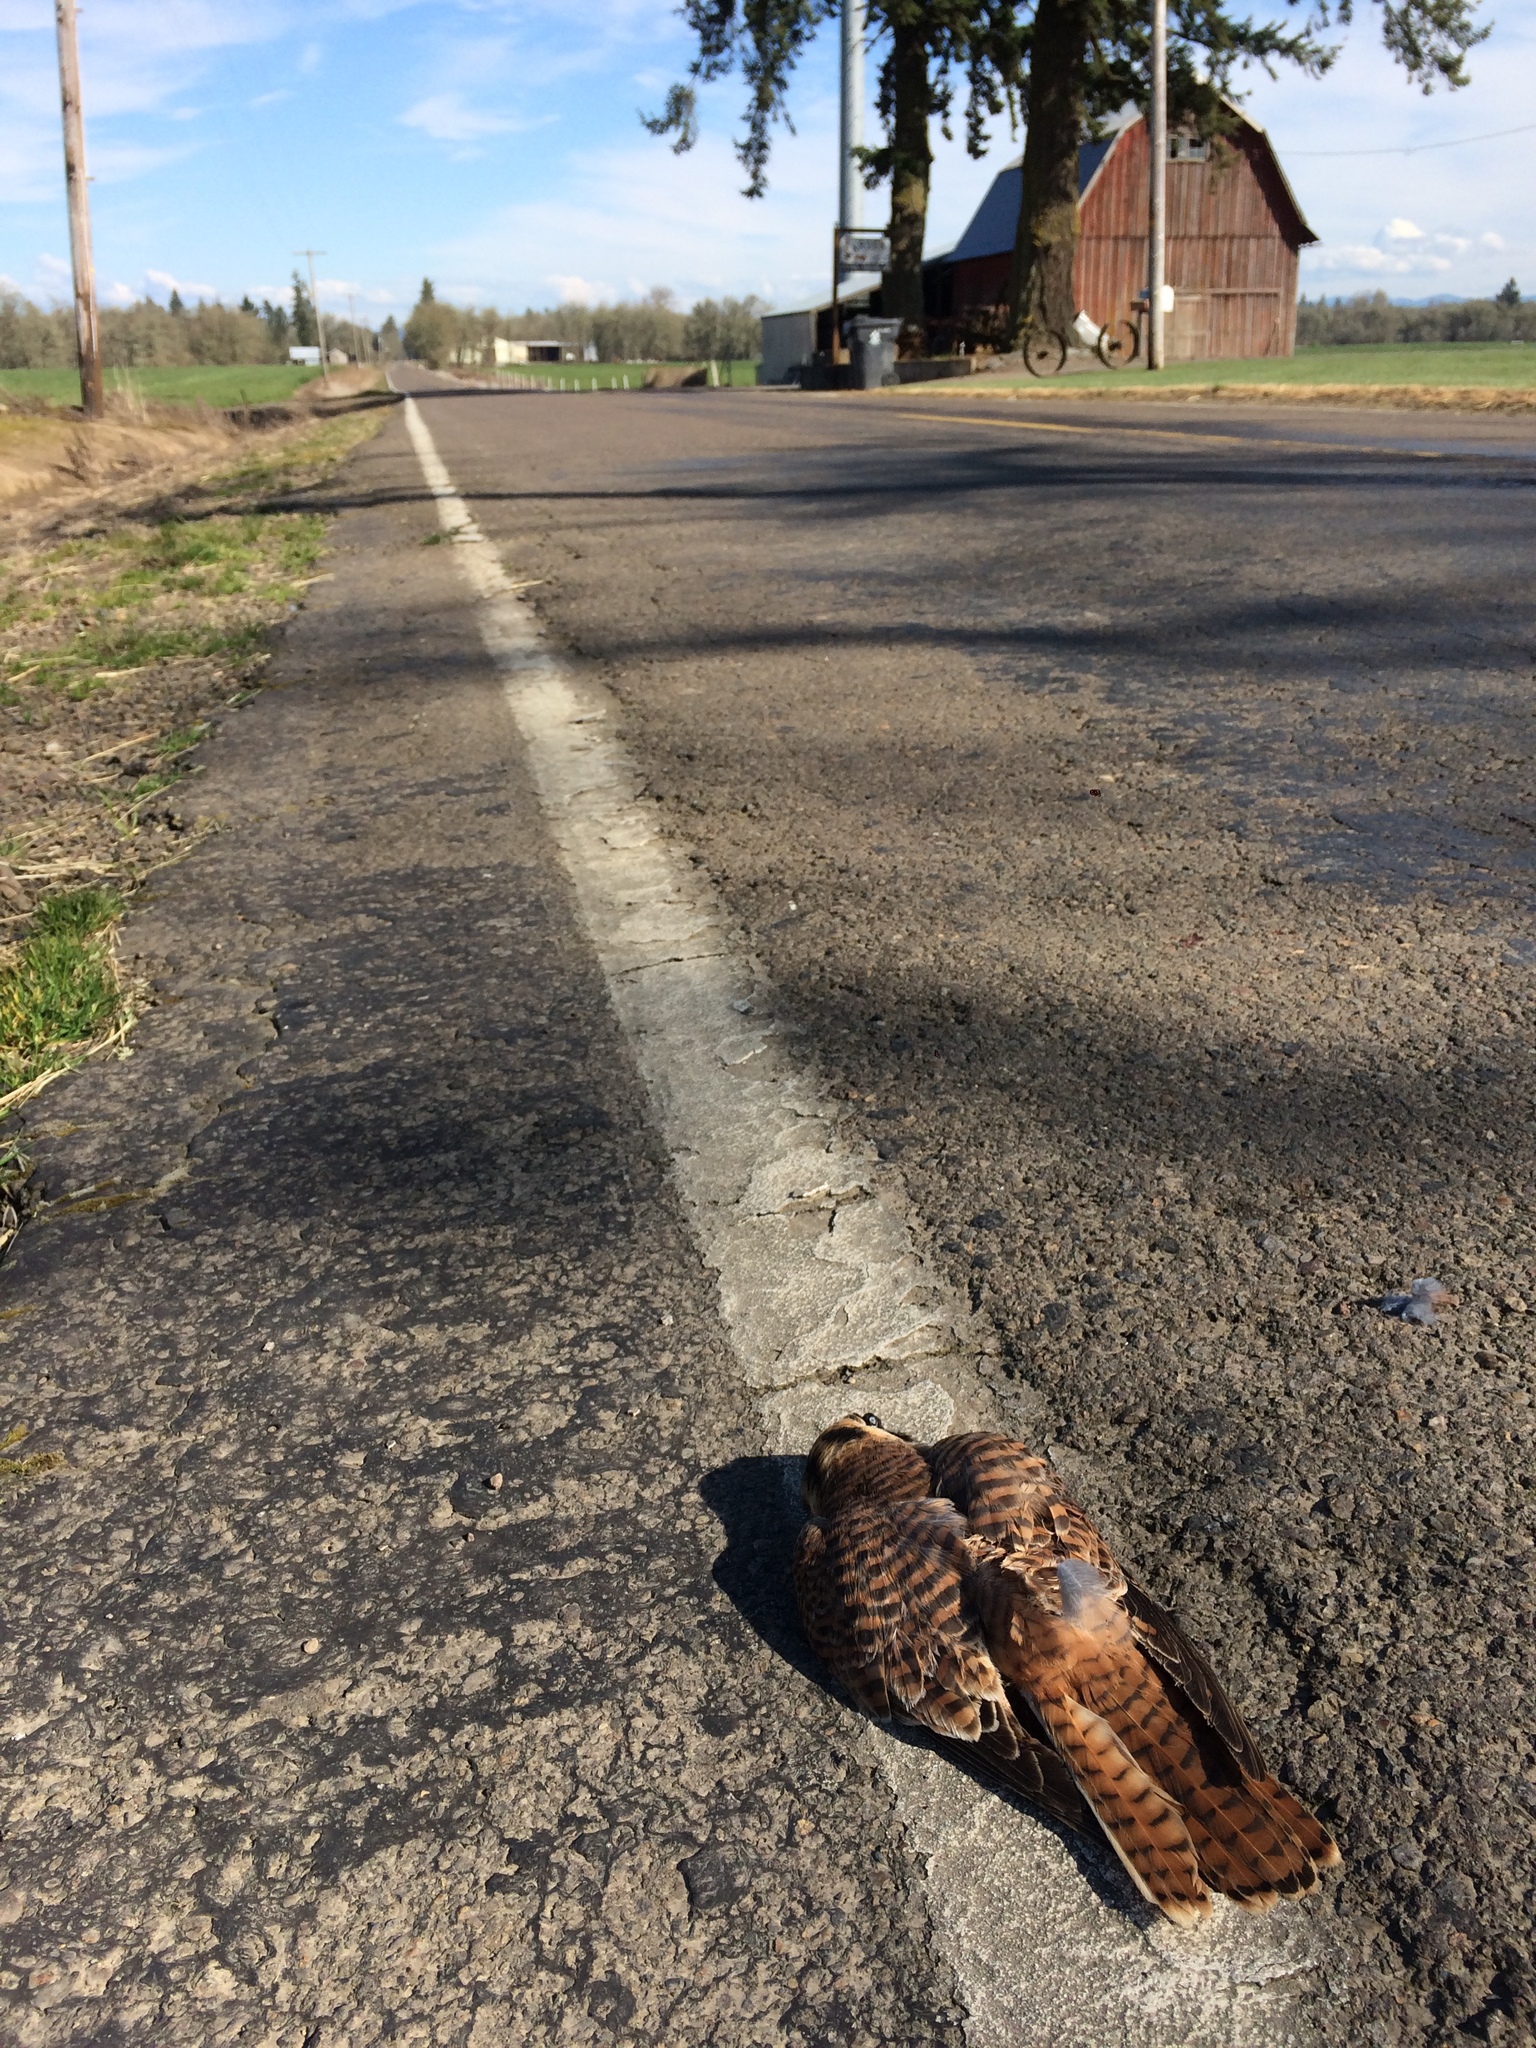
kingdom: Animalia
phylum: Chordata
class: Aves
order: Falconiformes
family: Falconidae
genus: Falco
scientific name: Falco sparverius
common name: American kestrel
